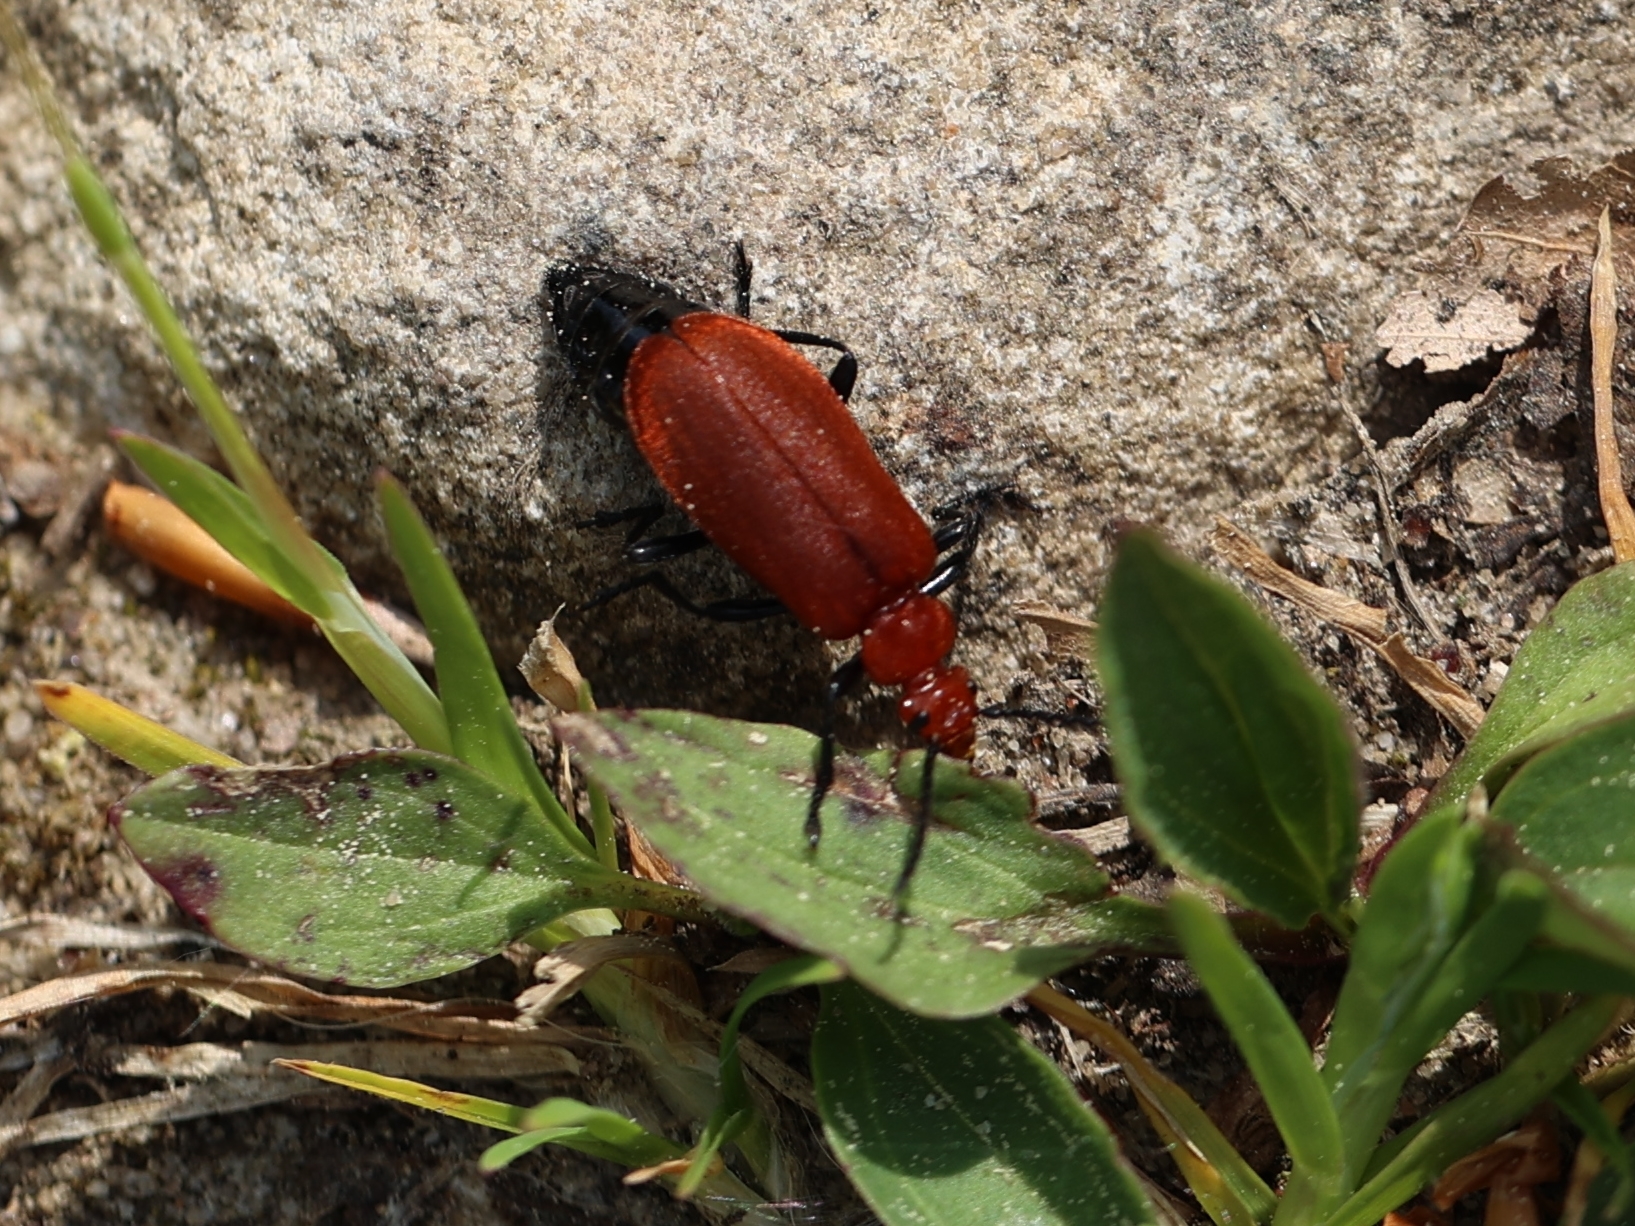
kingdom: Animalia
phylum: Arthropoda
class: Insecta
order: Coleoptera
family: Pyrochroidae
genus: Pyrochroa
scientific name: Pyrochroa serraticornis
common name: Red-headed cardinal beetle
